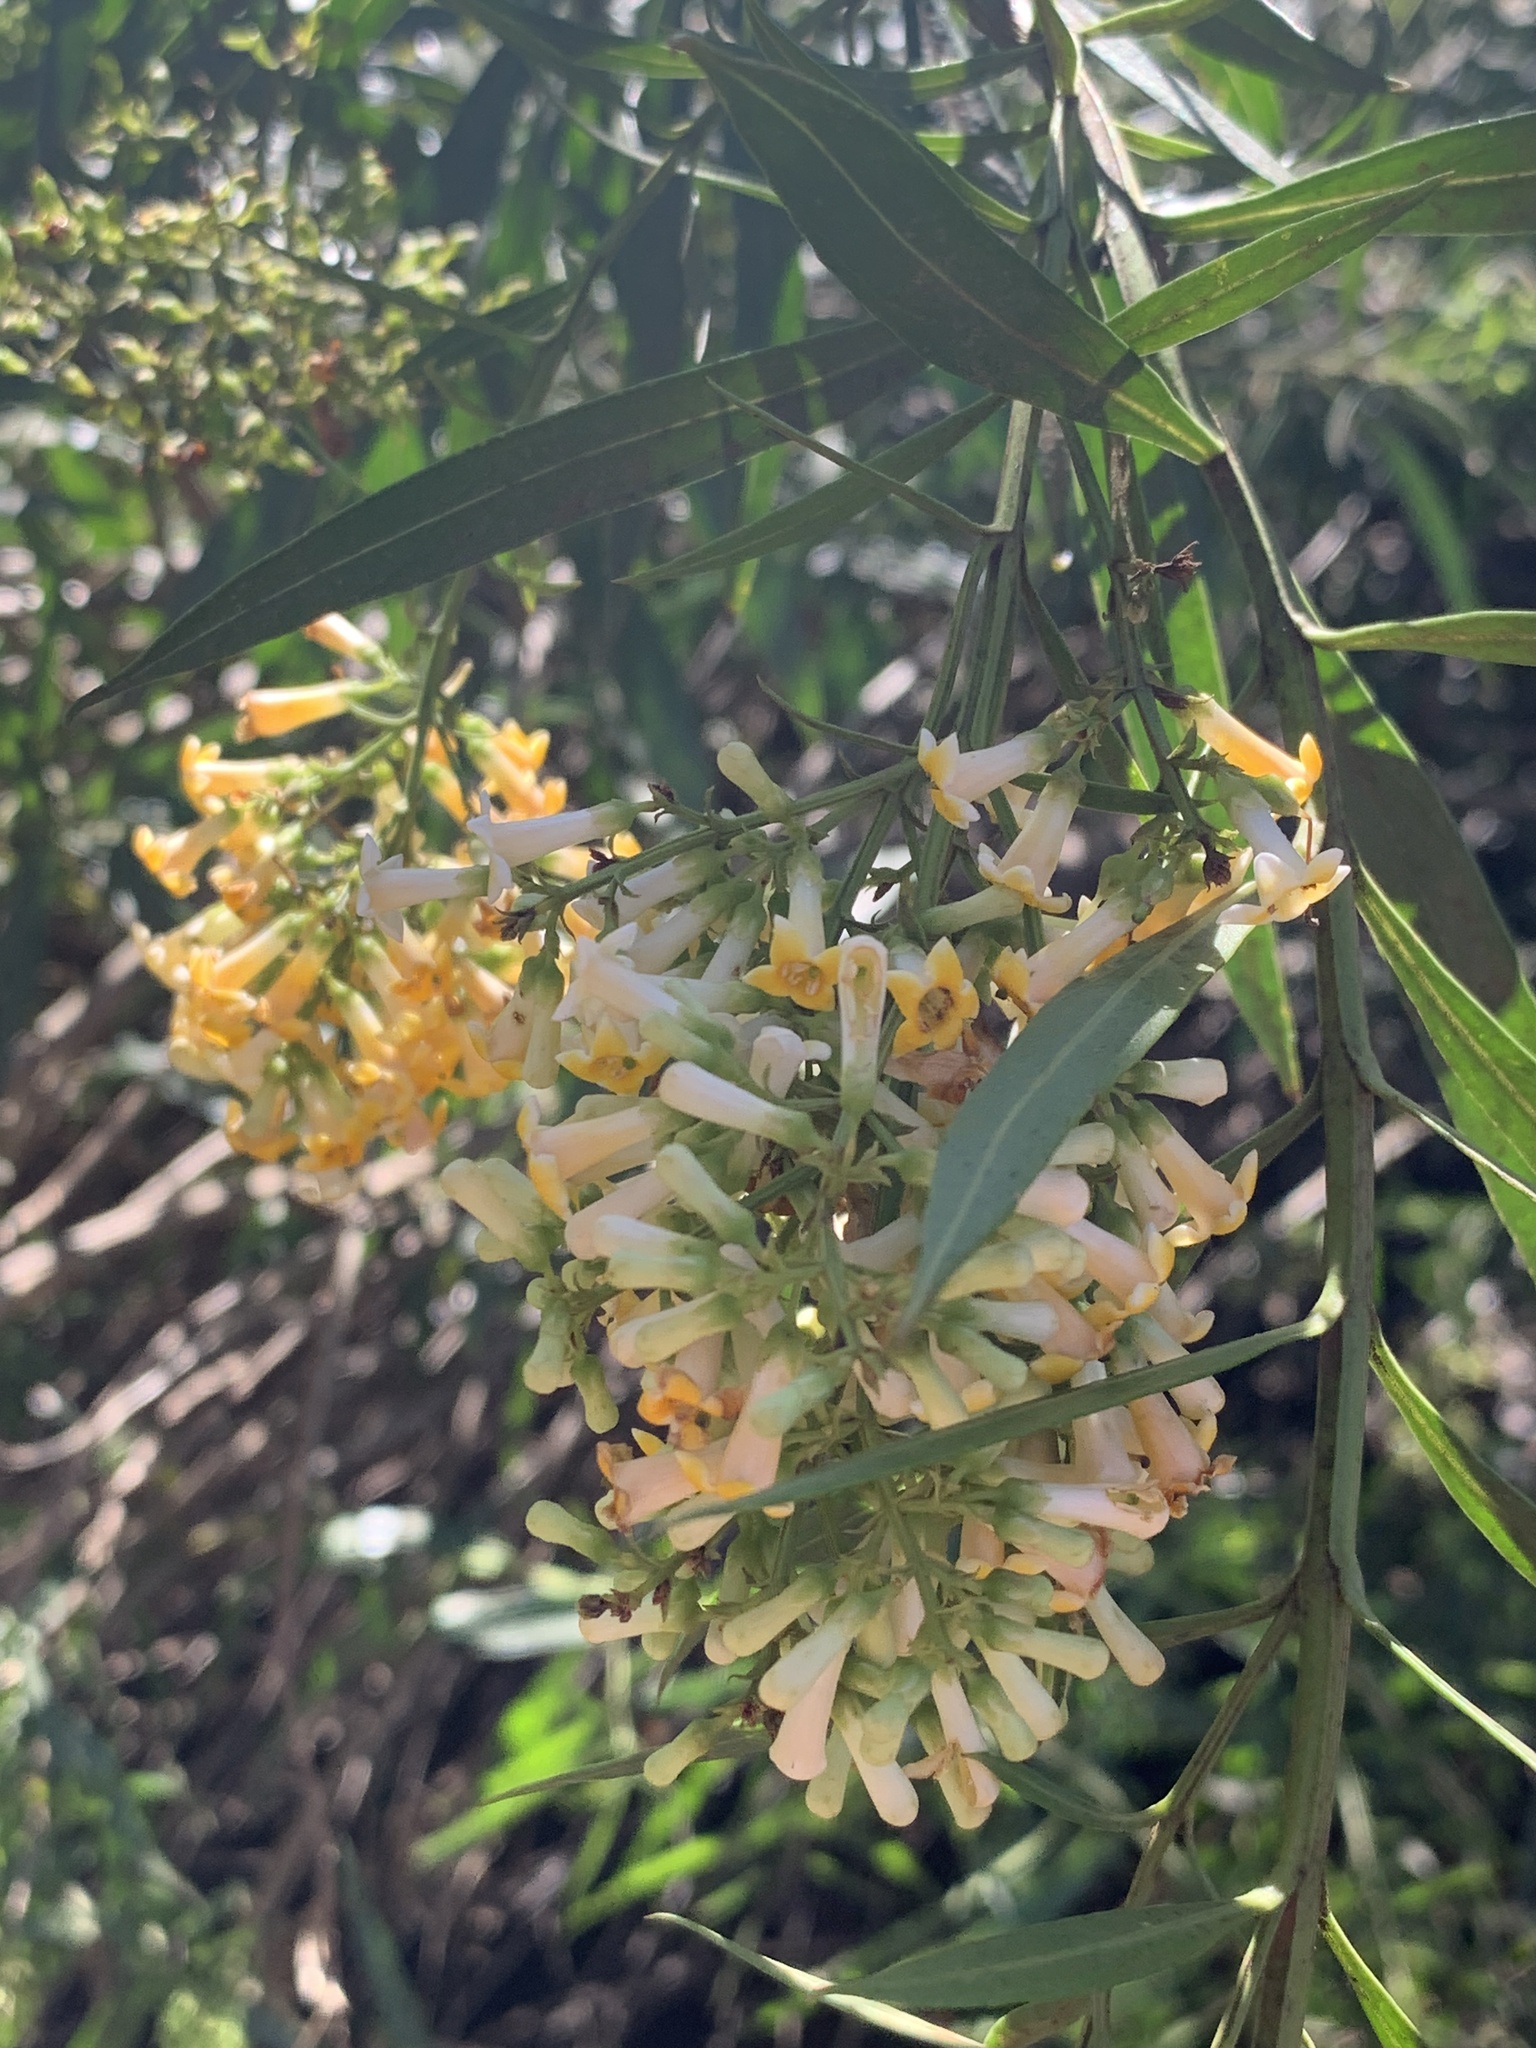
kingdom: Plantae
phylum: Tracheophyta
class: Magnoliopsida
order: Lamiales
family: Scrophulariaceae
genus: Freylinia
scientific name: Freylinia lanceolata
